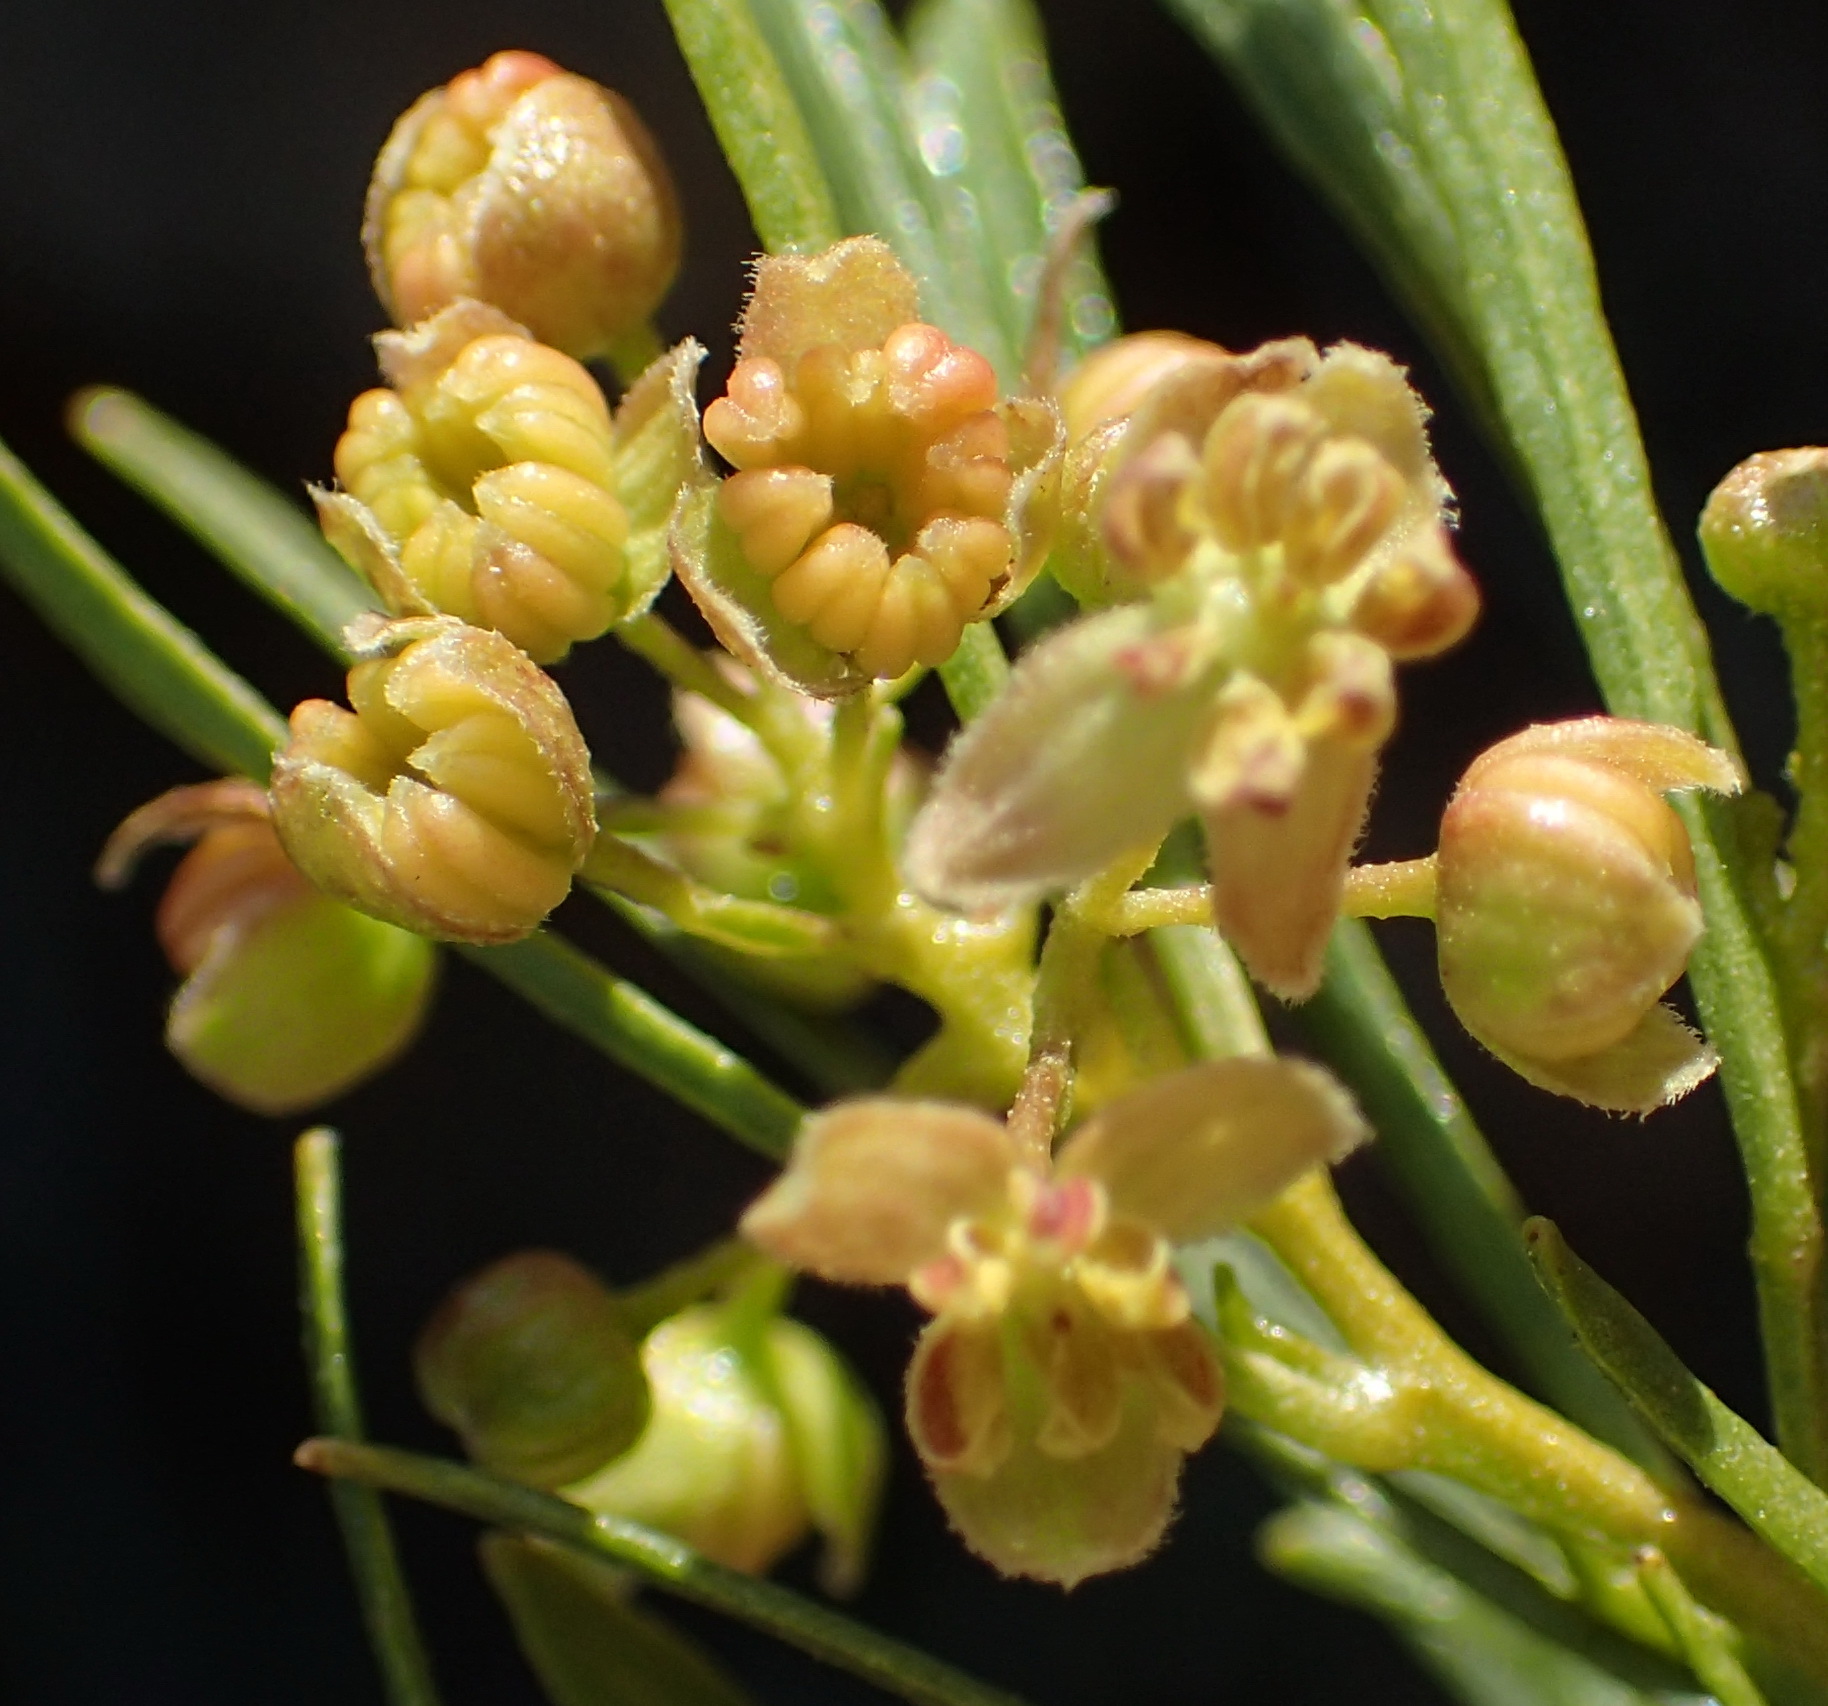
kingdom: Plantae
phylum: Tracheophyta
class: Magnoliopsida
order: Sapindales
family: Sapindaceae
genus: Dodonaea
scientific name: Dodonaea viscosa
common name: Hopbush
